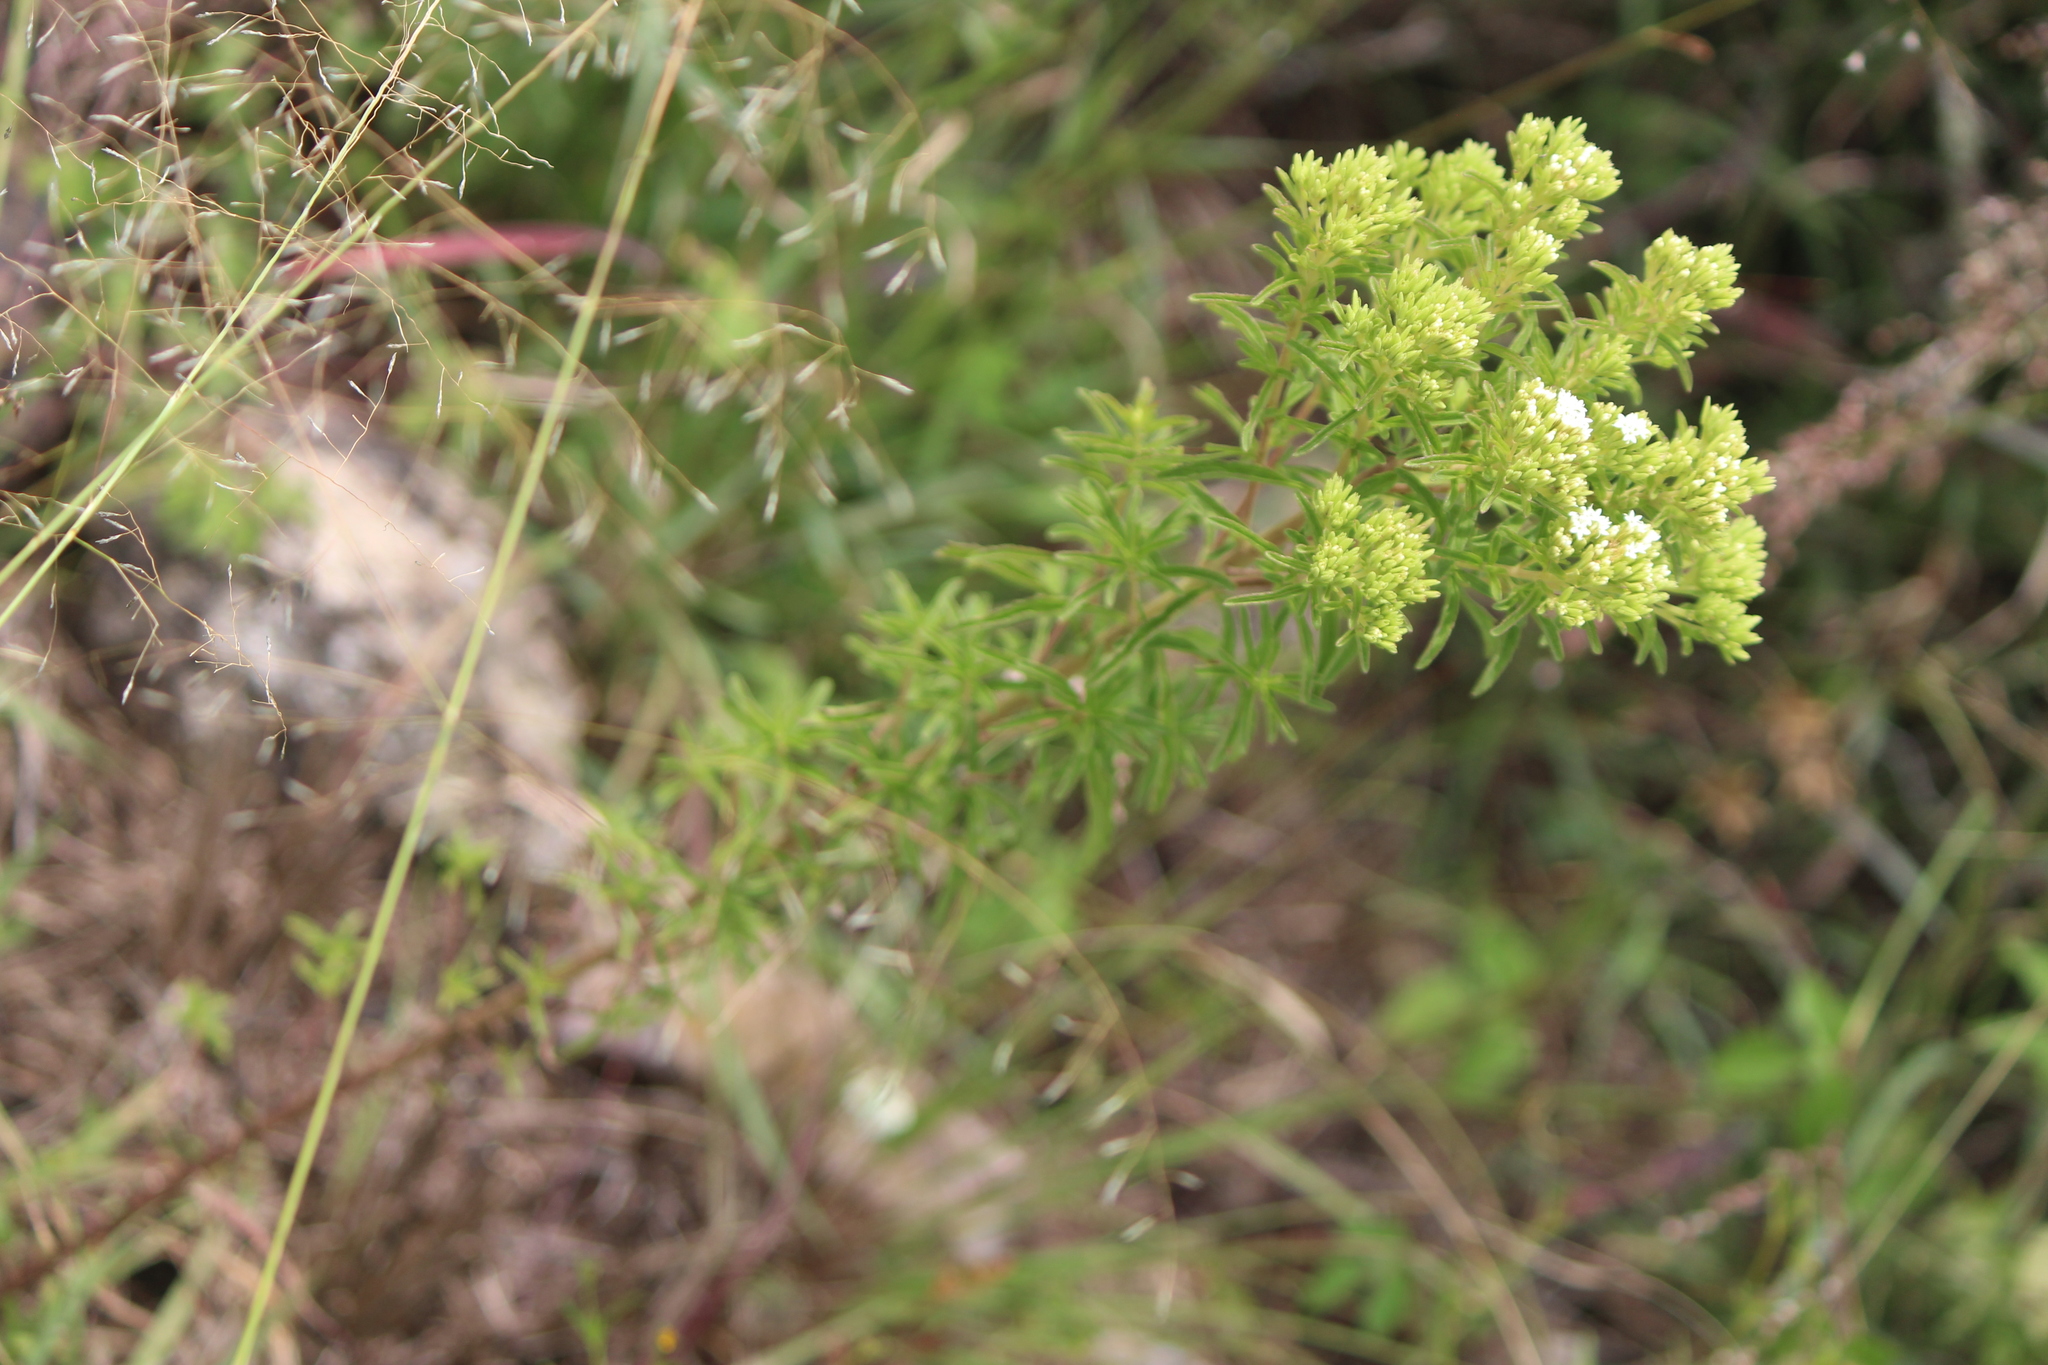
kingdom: Plantae
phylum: Tracheophyta
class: Magnoliopsida
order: Asterales
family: Asteraceae
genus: Stevia
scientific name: Stevia serrata
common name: Sawtooth candyleaf
